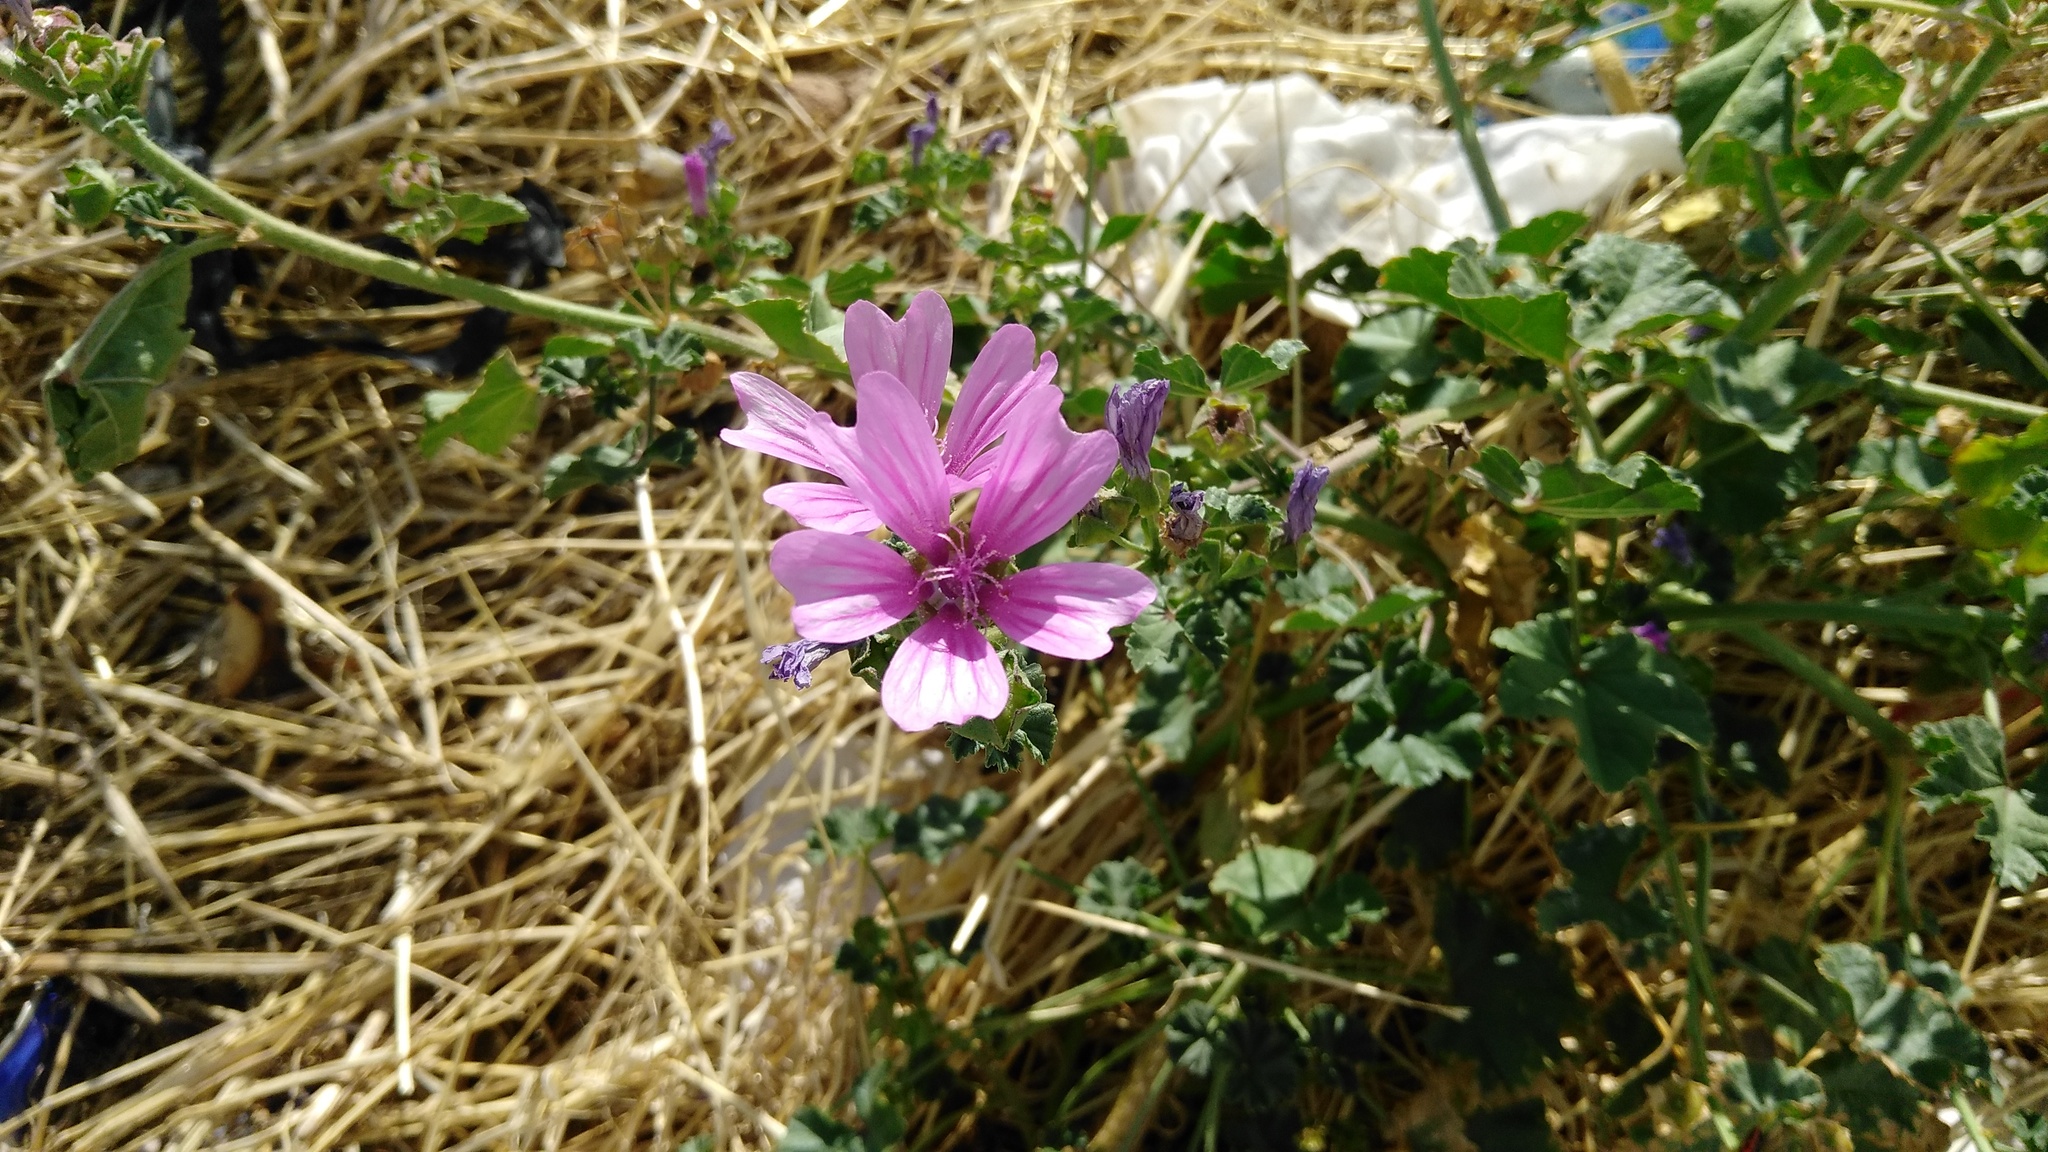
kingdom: Plantae
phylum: Tracheophyta
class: Magnoliopsida
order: Malvales
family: Malvaceae
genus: Malva
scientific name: Malva sylvestris
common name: Common mallow
